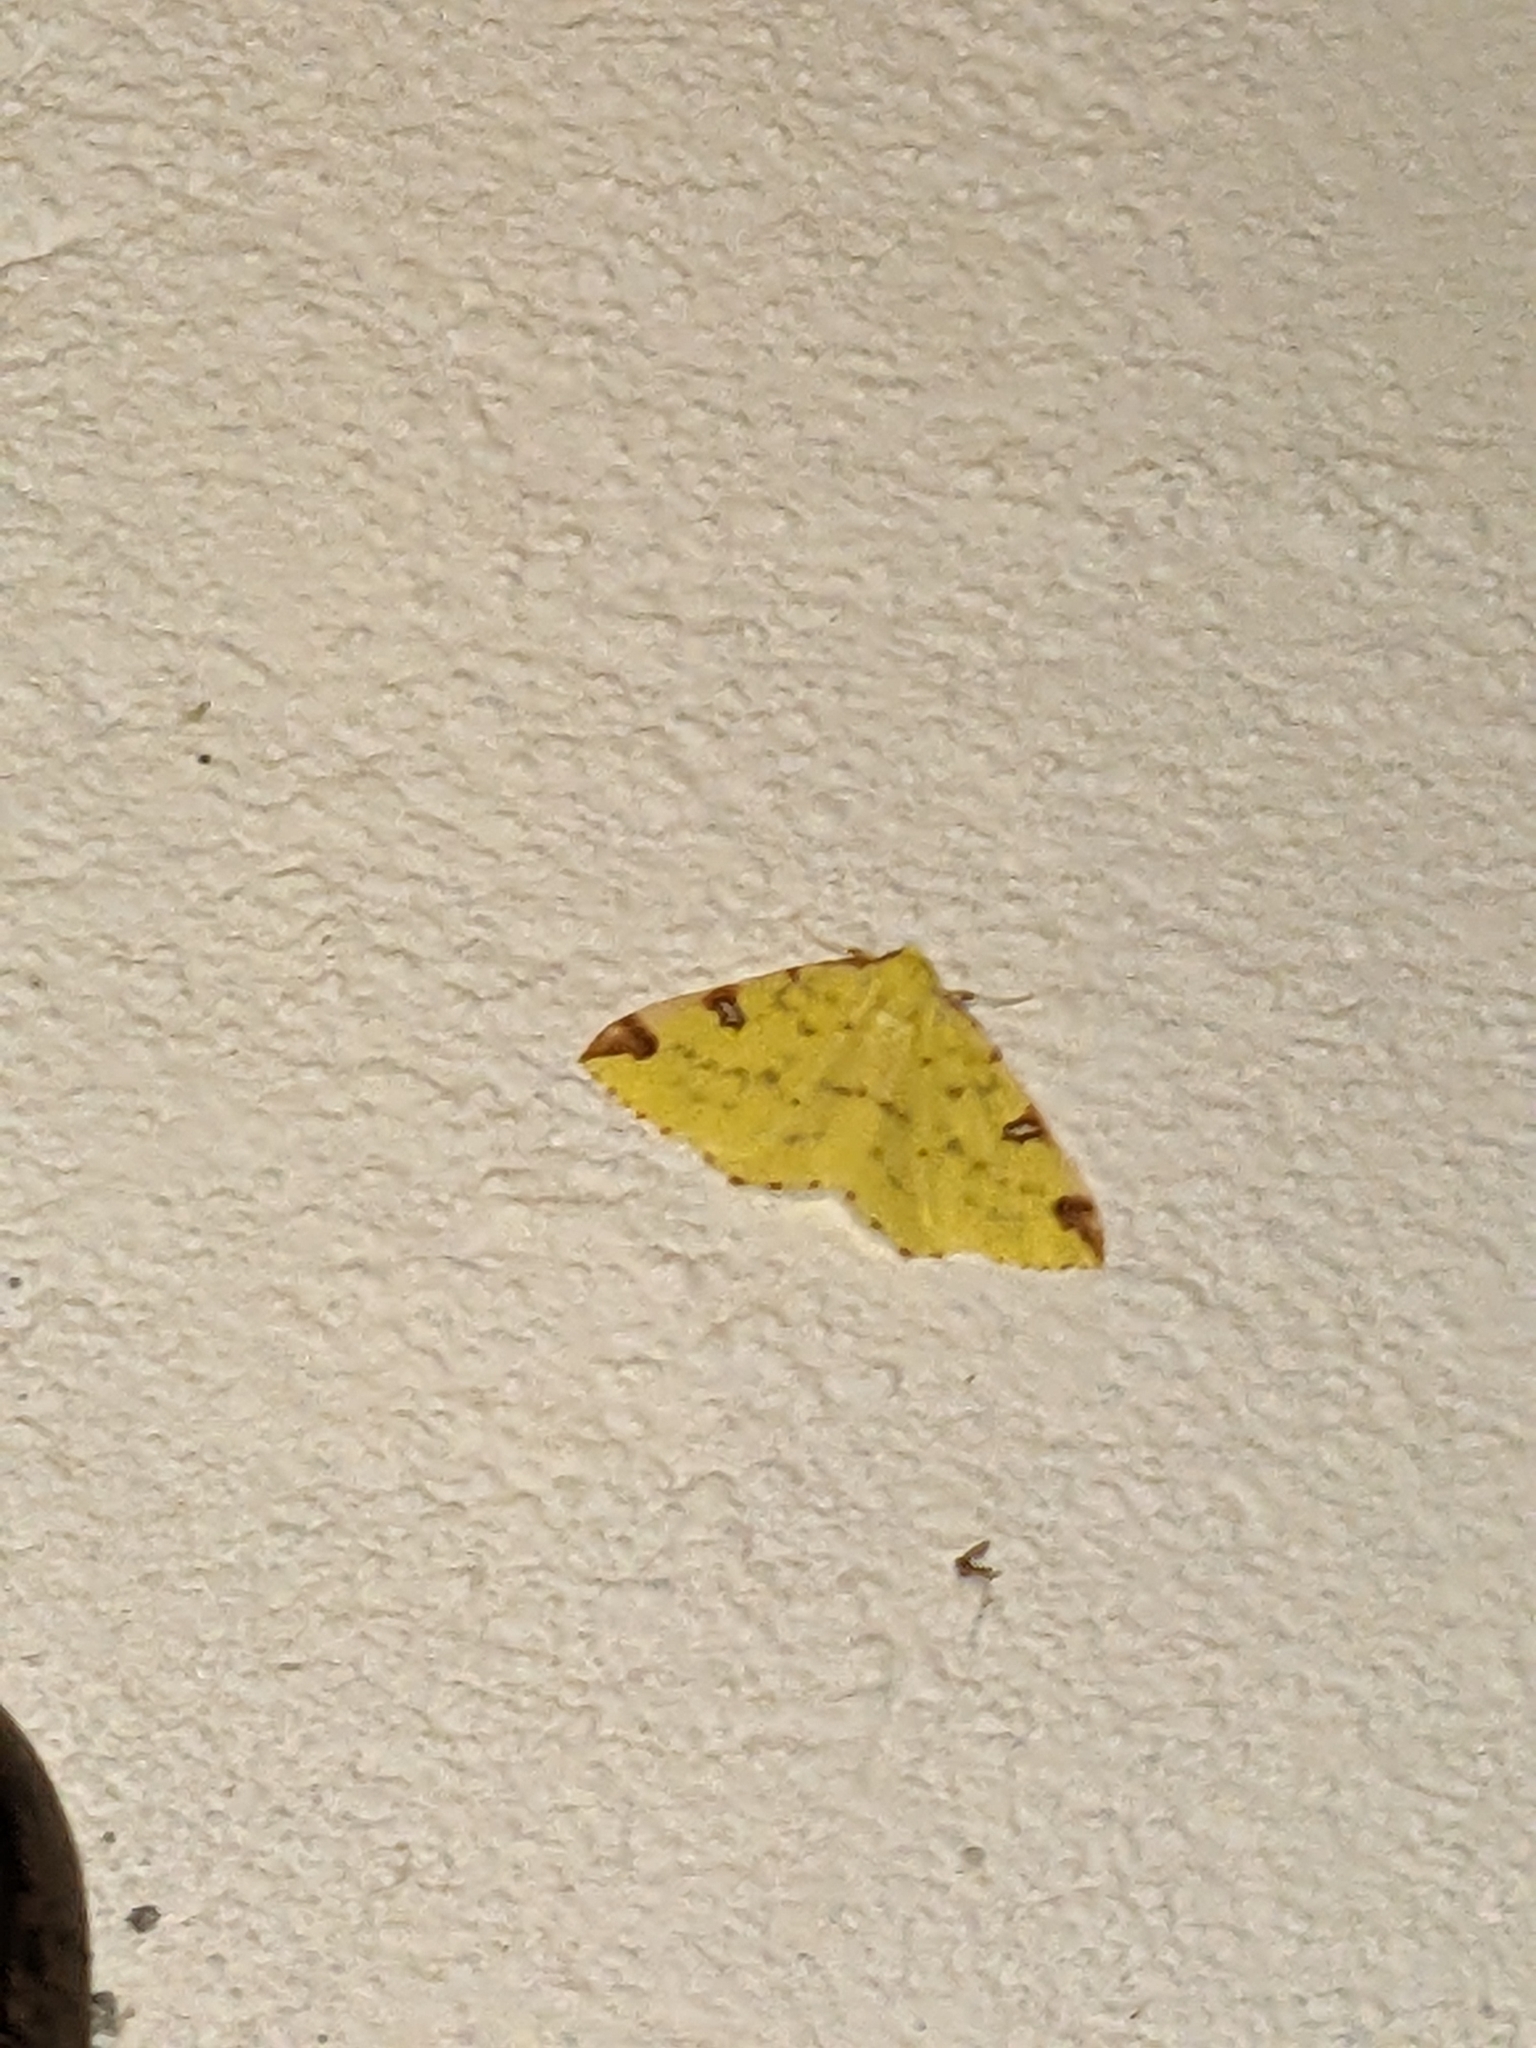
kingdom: Animalia
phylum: Arthropoda
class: Insecta
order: Lepidoptera
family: Geometridae
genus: Opisthograptis
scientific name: Opisthograptis luteolata
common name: Brimstone moth
